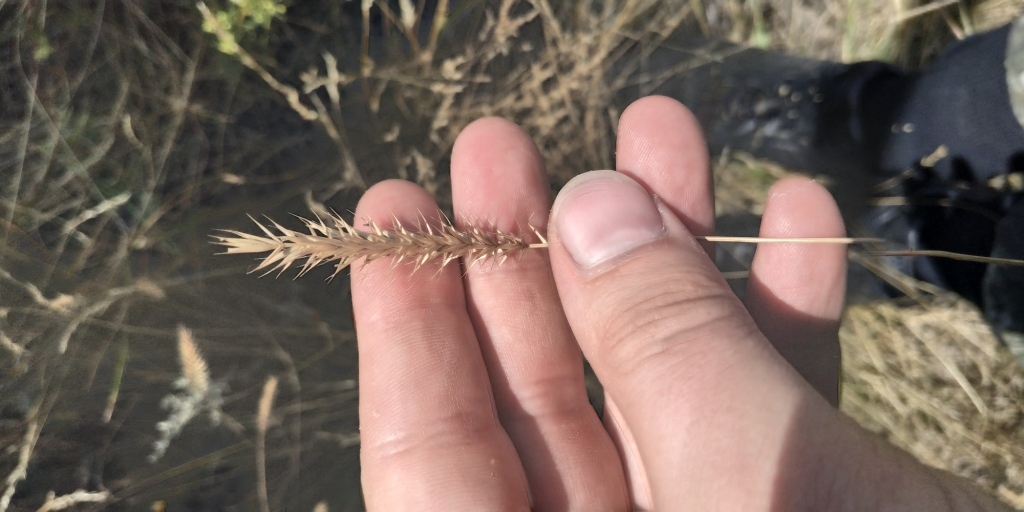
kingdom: Plantae
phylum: Tracheophyta
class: Liliopsida
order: Poales
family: Poaceae
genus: Agropyron
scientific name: Agropyron cristatum
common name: Crested wheatgrass
